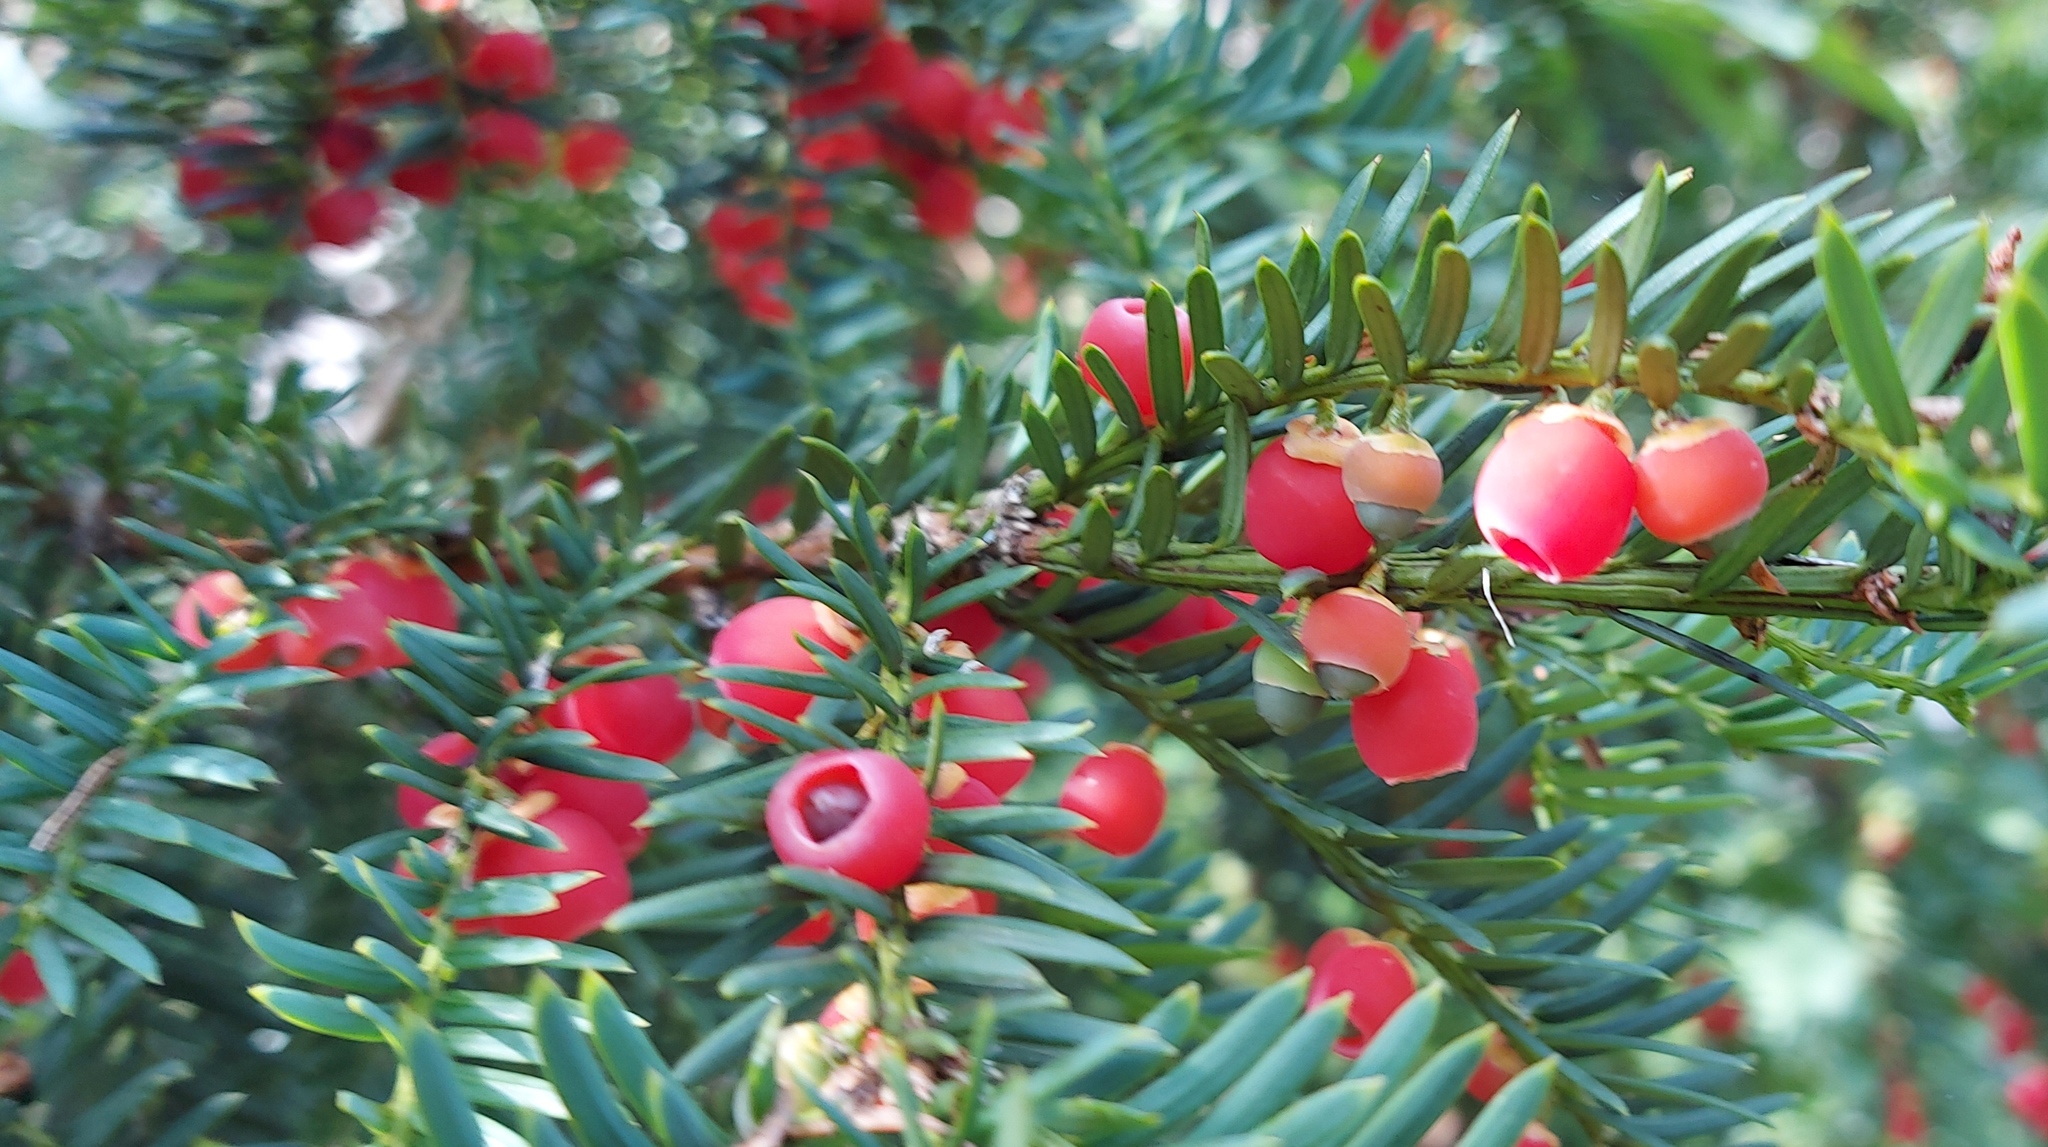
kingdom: Plantae
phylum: Tracheophyta
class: Pinopsida
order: Pinales
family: Taxaceae
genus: Taxus
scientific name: Taxus baccata
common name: Yew
